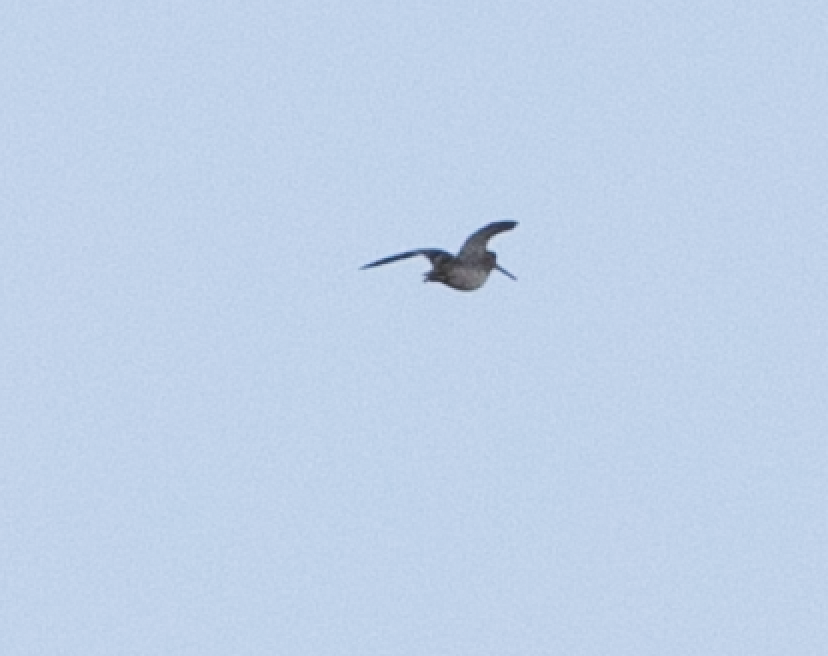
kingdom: Animalia
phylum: Chordata
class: Aves
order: Charadriiformes
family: Scolopacidae
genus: Gallinago
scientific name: Gallinago gallinago
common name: Common snipe
